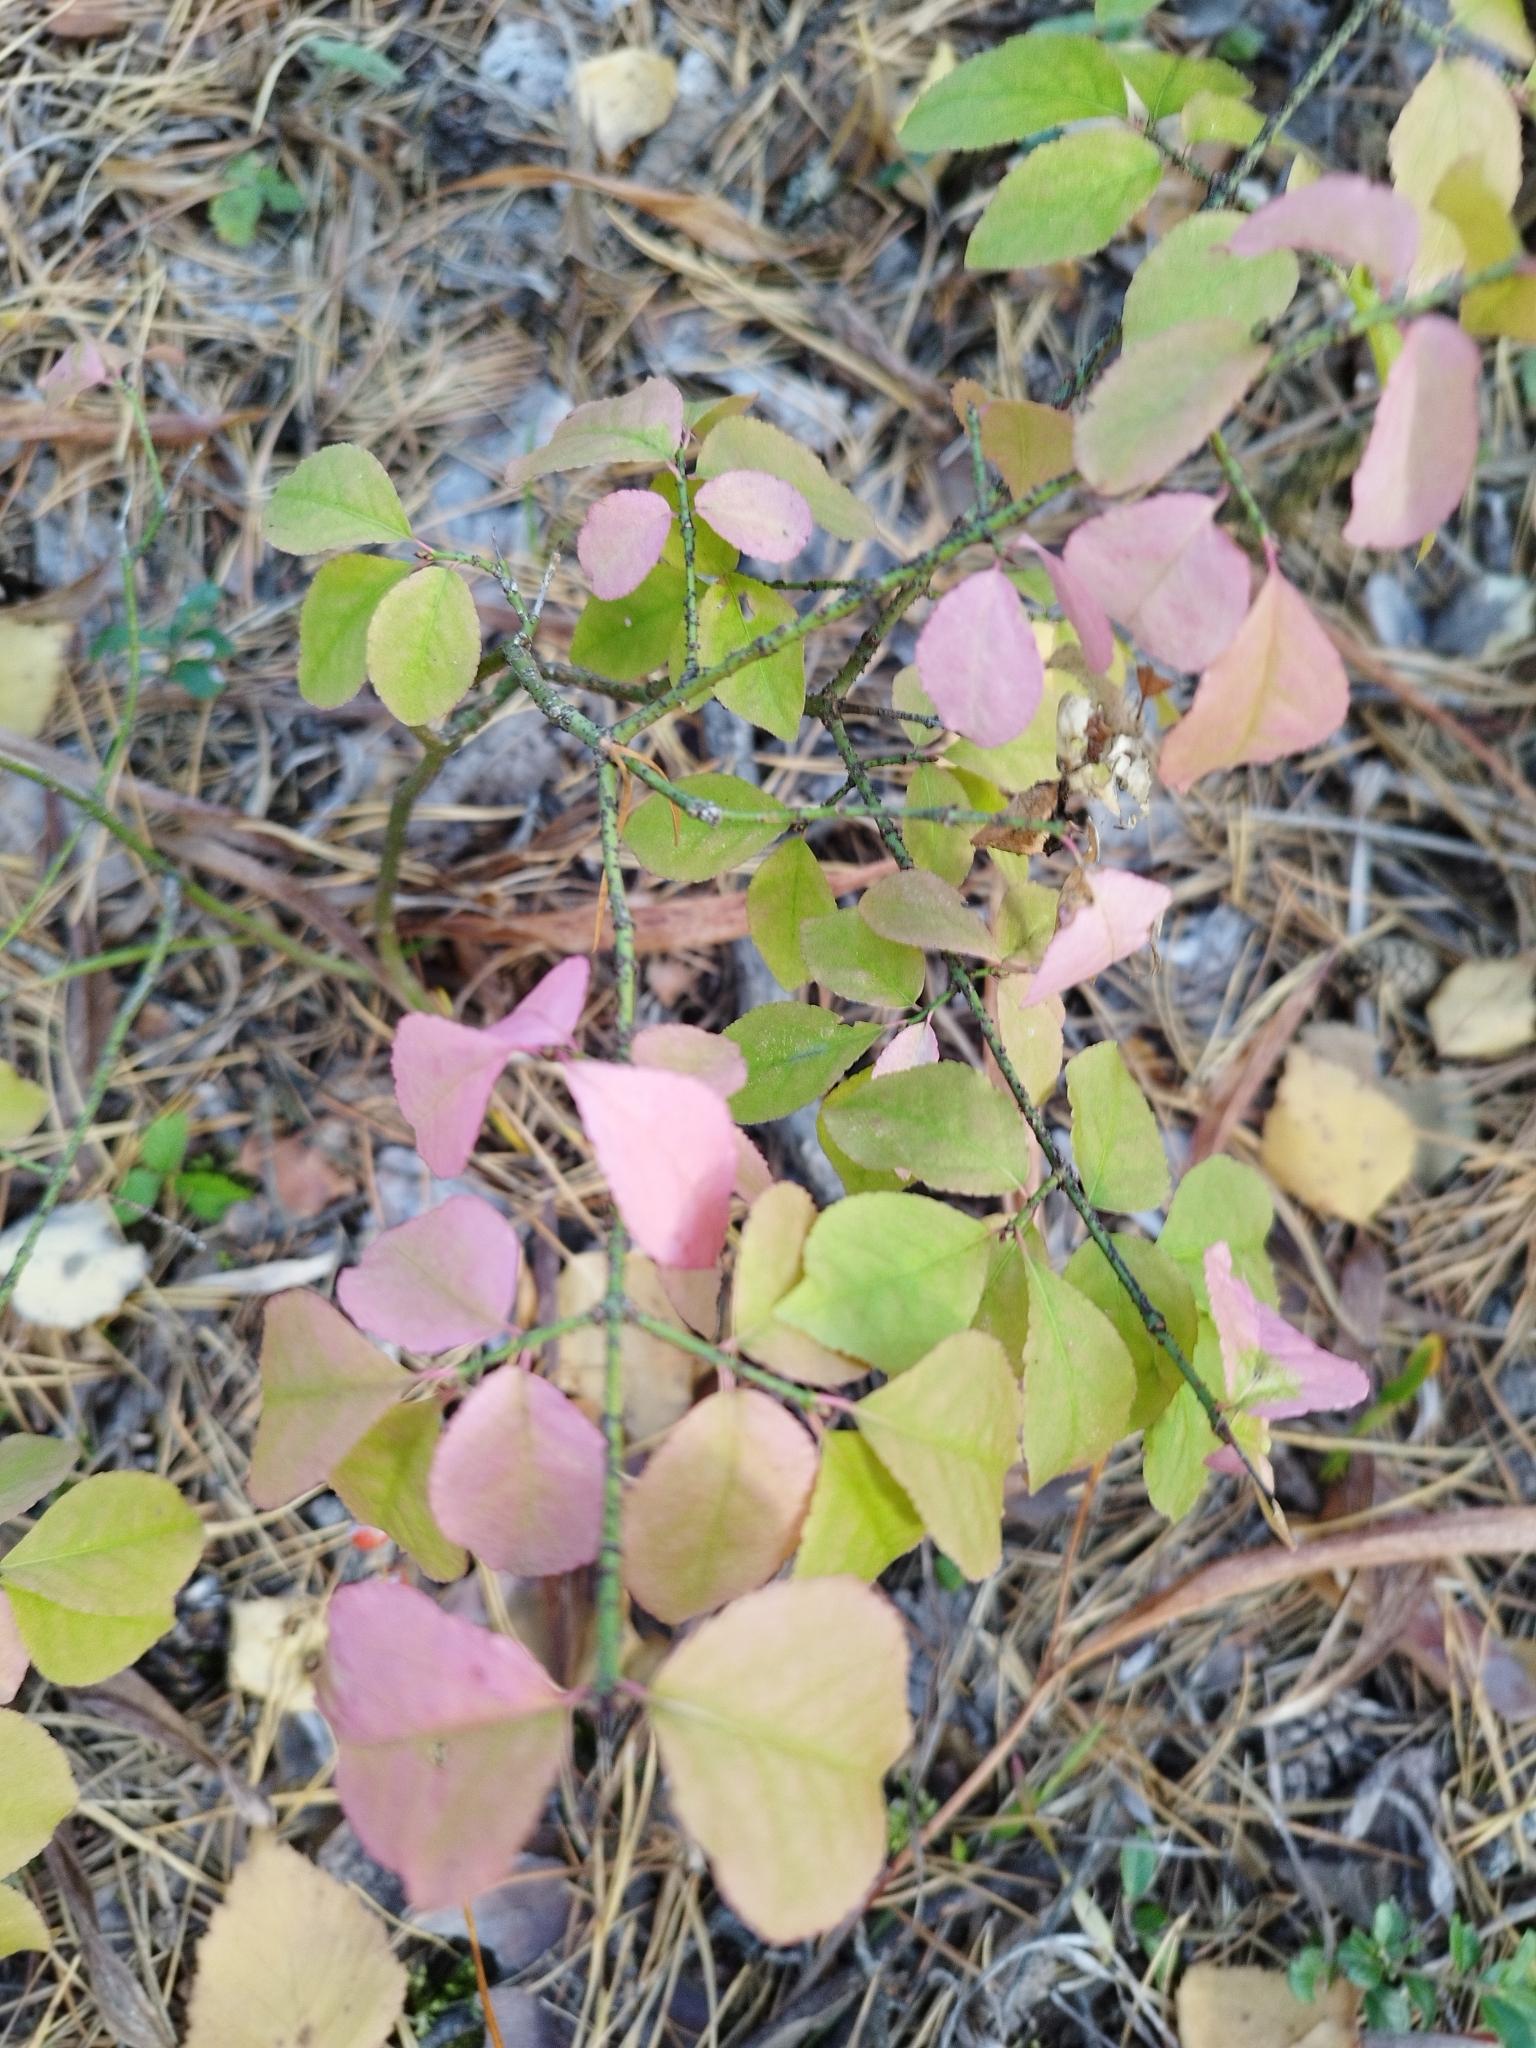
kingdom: Plantae
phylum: Tracheophyta
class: Magnoliopsida
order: Celastrales
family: Celastraceae
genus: Euonymus
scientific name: Euonymus verrucosus
